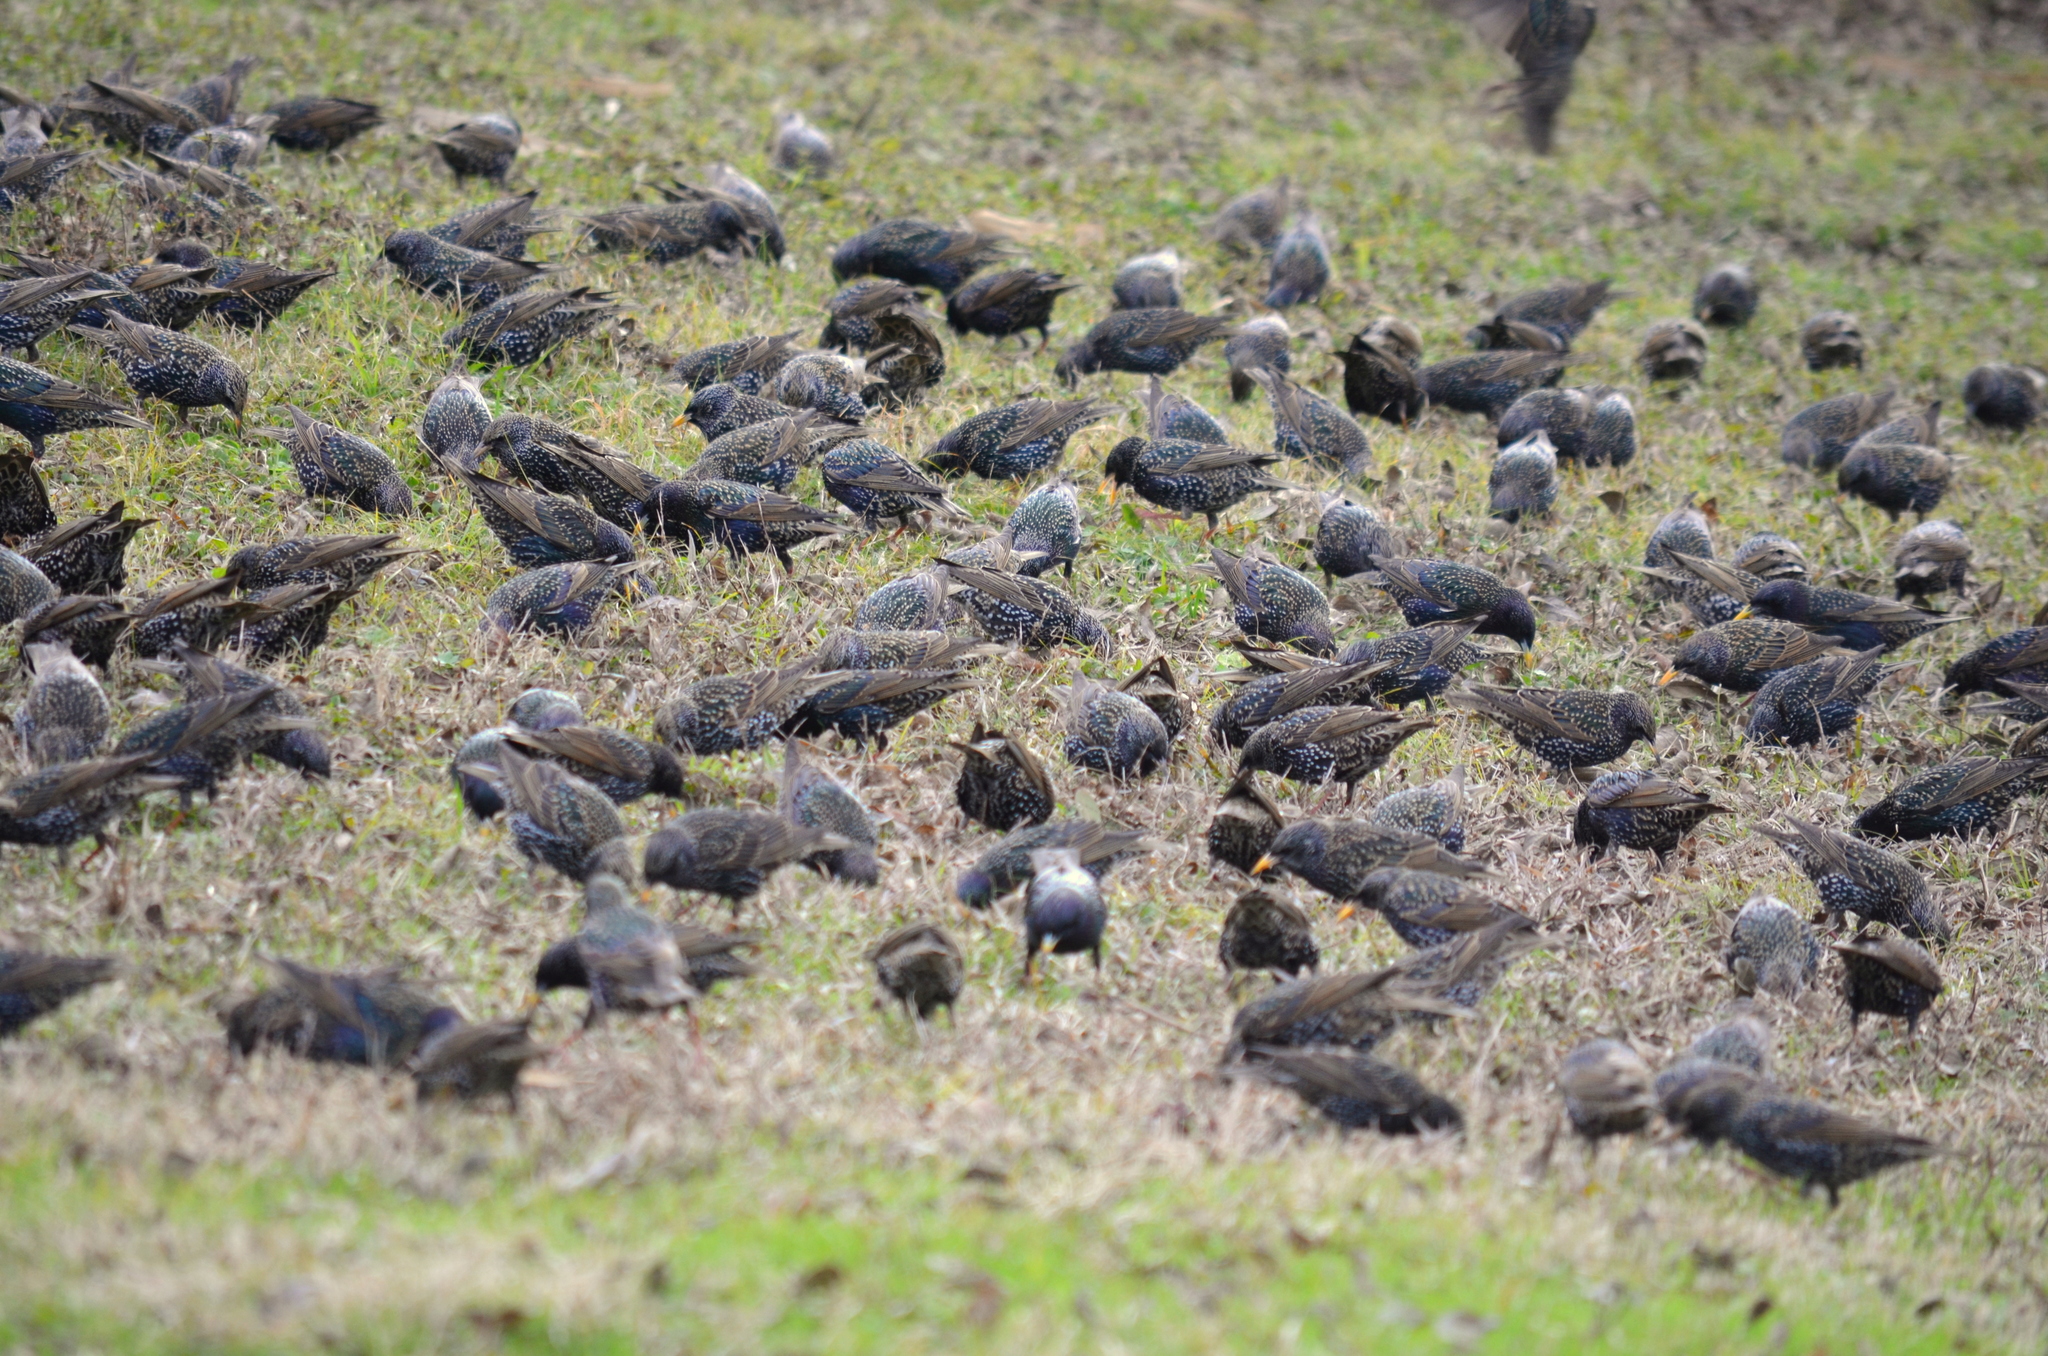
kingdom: Animalia
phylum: Chordata
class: Aves
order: Passeriformes
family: Sturnidae
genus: Sturnus
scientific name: Sturnus vulgaris
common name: Common starling
